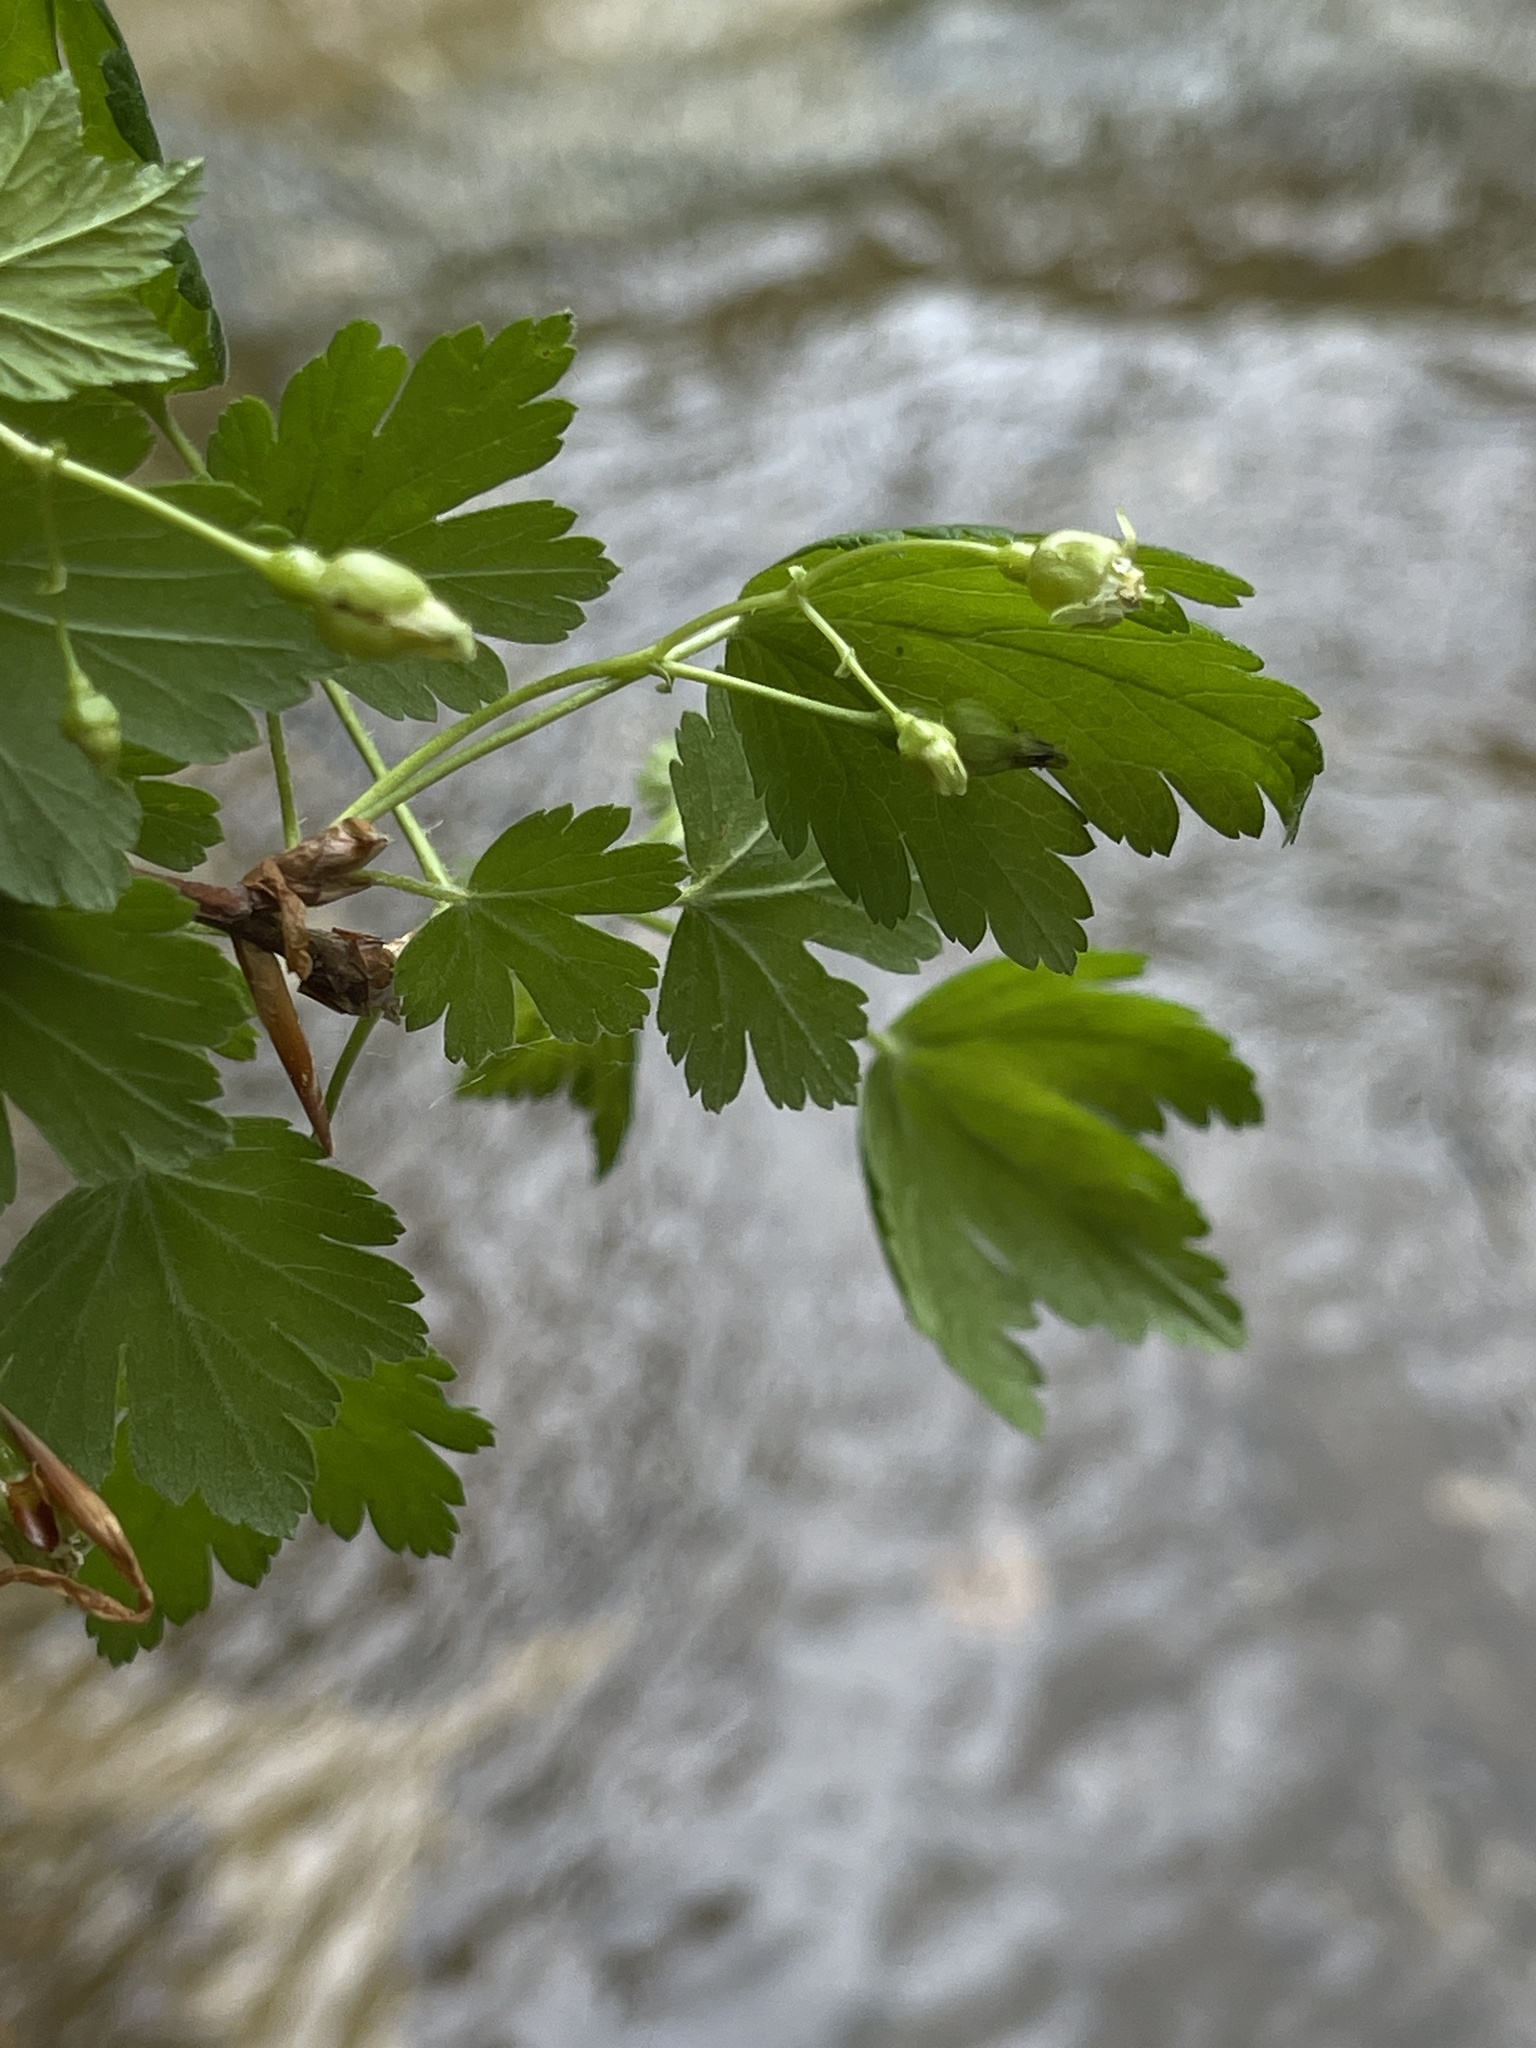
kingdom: Plantae
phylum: Tracheophyta
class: Magnoliopsida
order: Saxifragales
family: Grossulariaceae
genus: Ribes
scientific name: Ribes cynosbati
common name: American gooseberry
